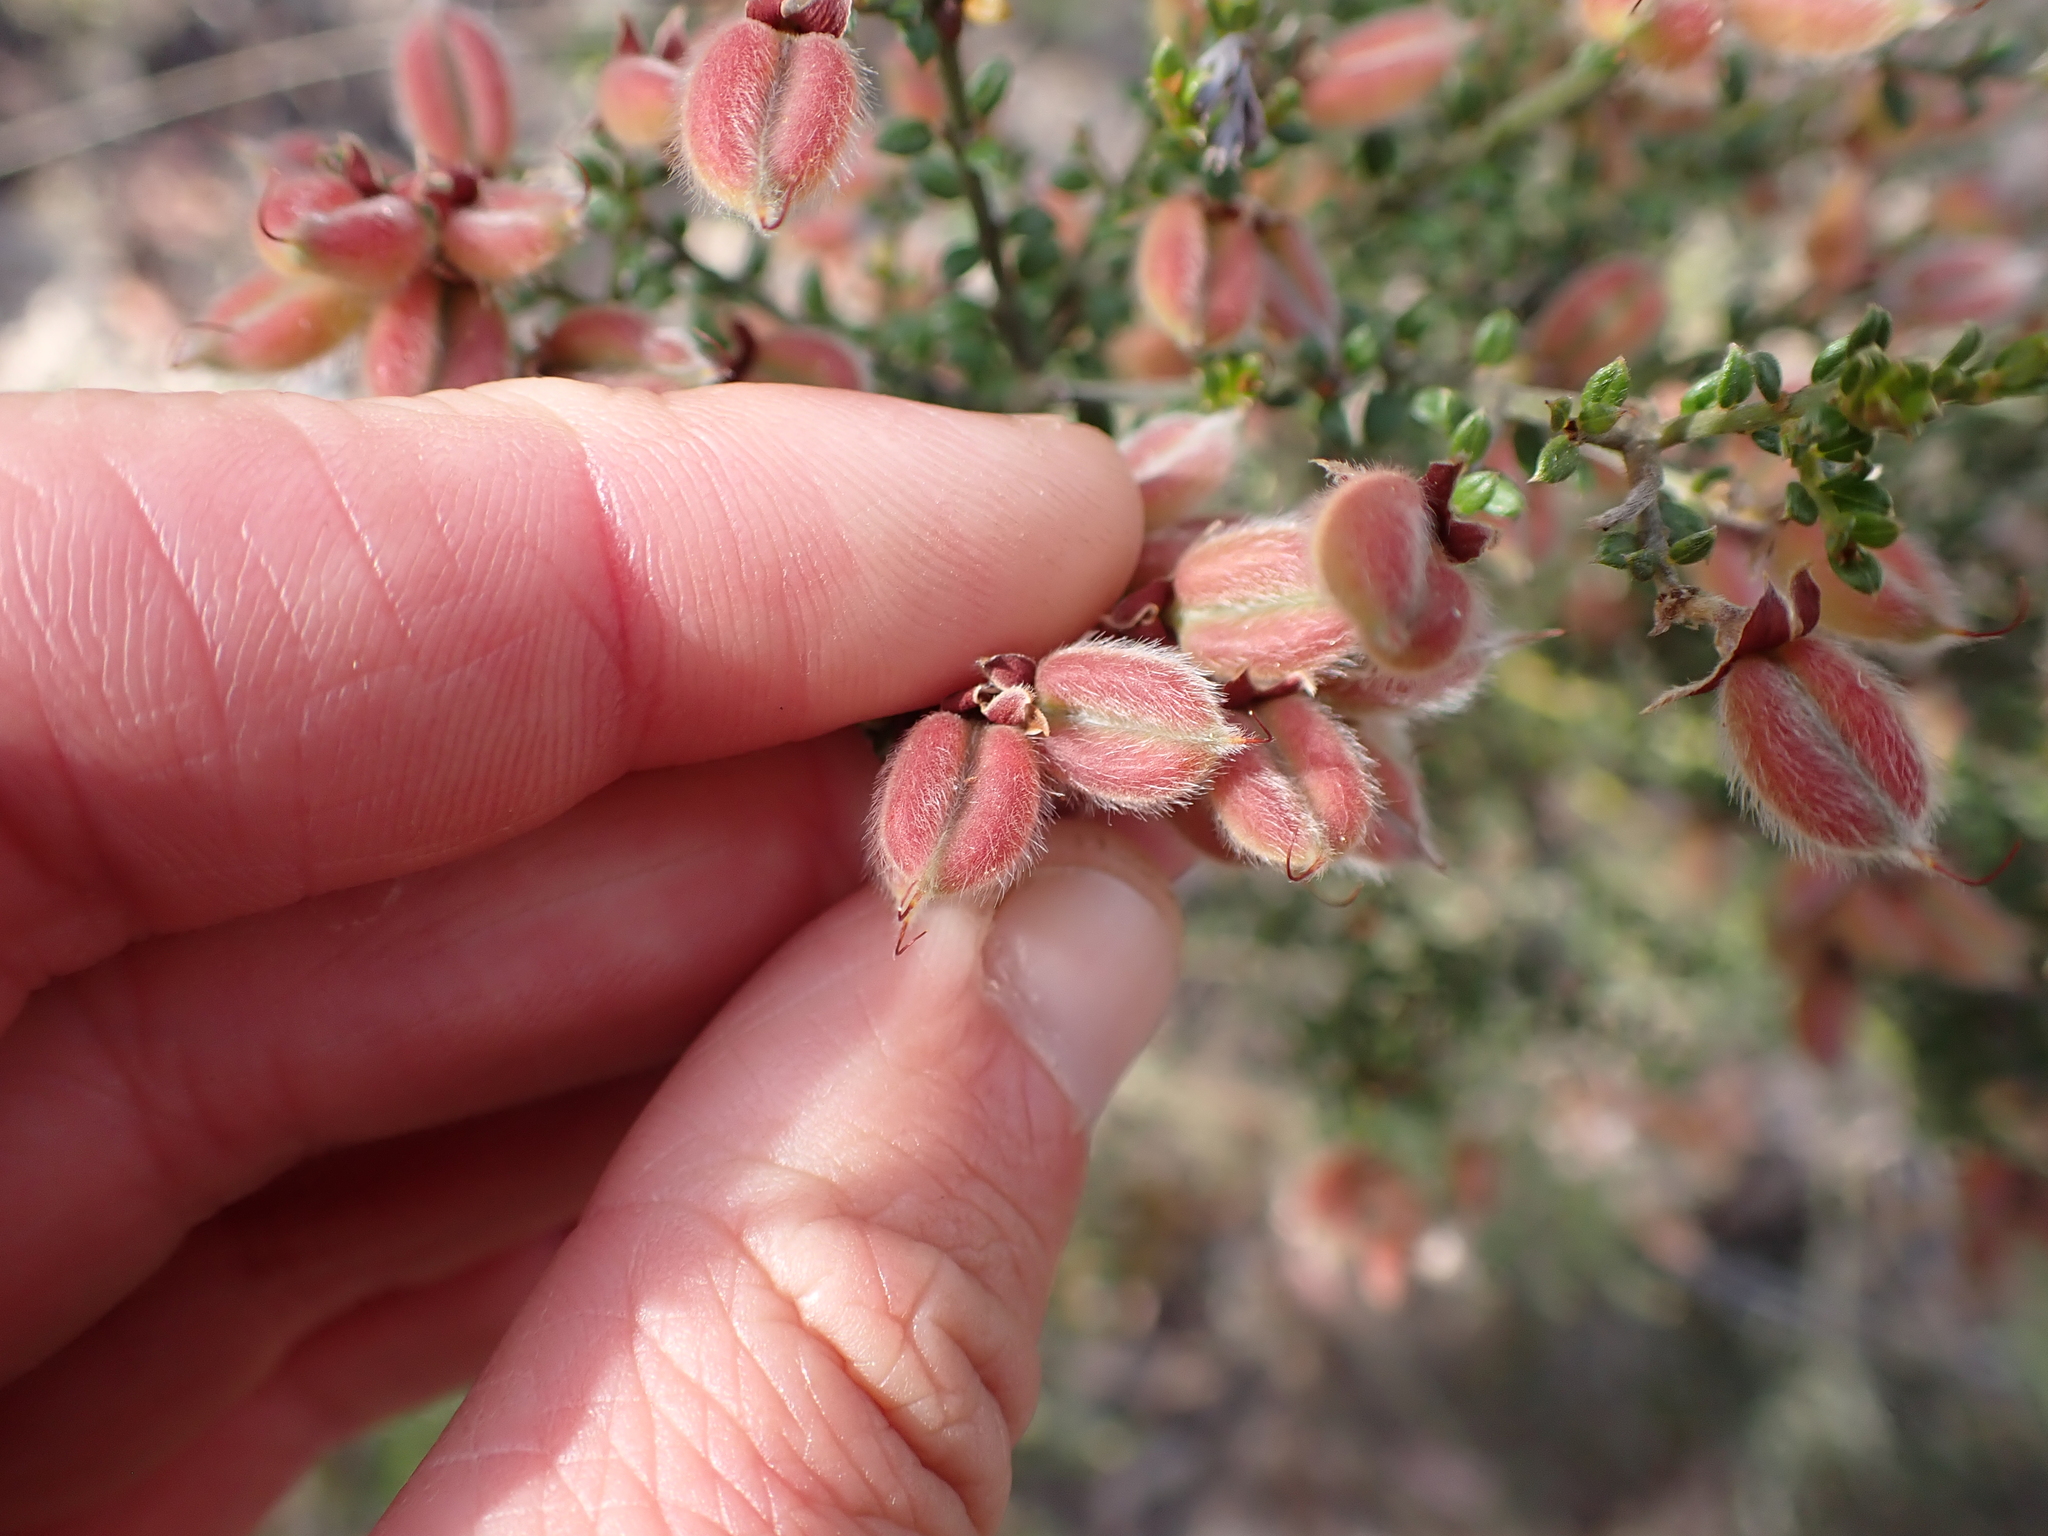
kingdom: Plantae
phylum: Tracheophyta
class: Magnoliopsida
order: Fabales
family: Fabaceae
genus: Oxylobium
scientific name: Oxylobium oxylobioides
